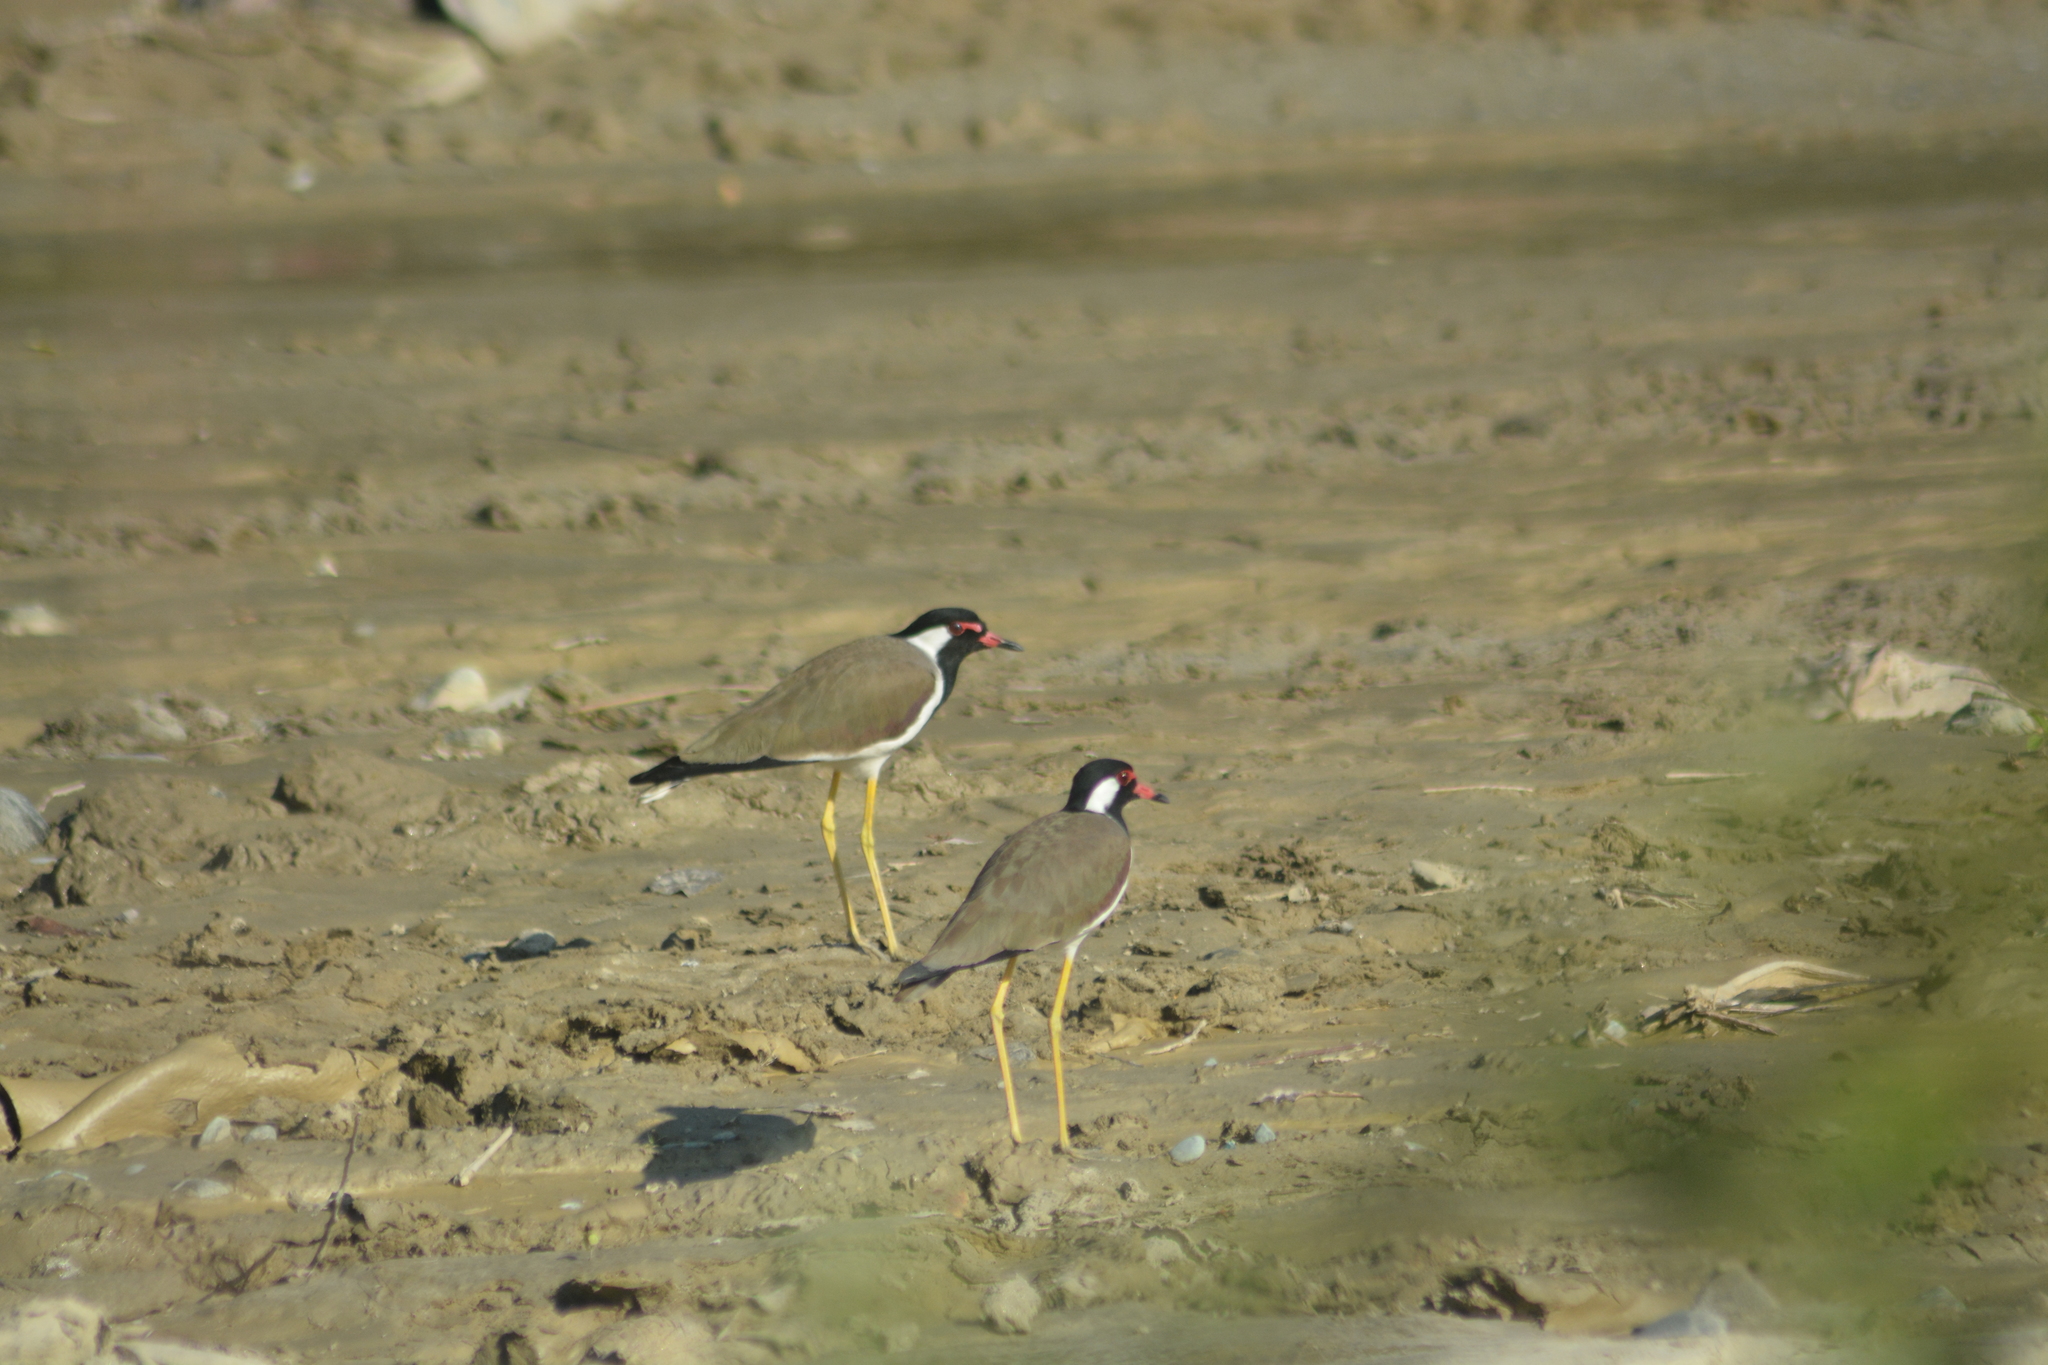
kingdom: Animalia
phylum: Chordata
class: Aves
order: Charadriiformes
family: Charadriidae
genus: Vanellus
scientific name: Vanellus indicus
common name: Red-wattled lapwing
